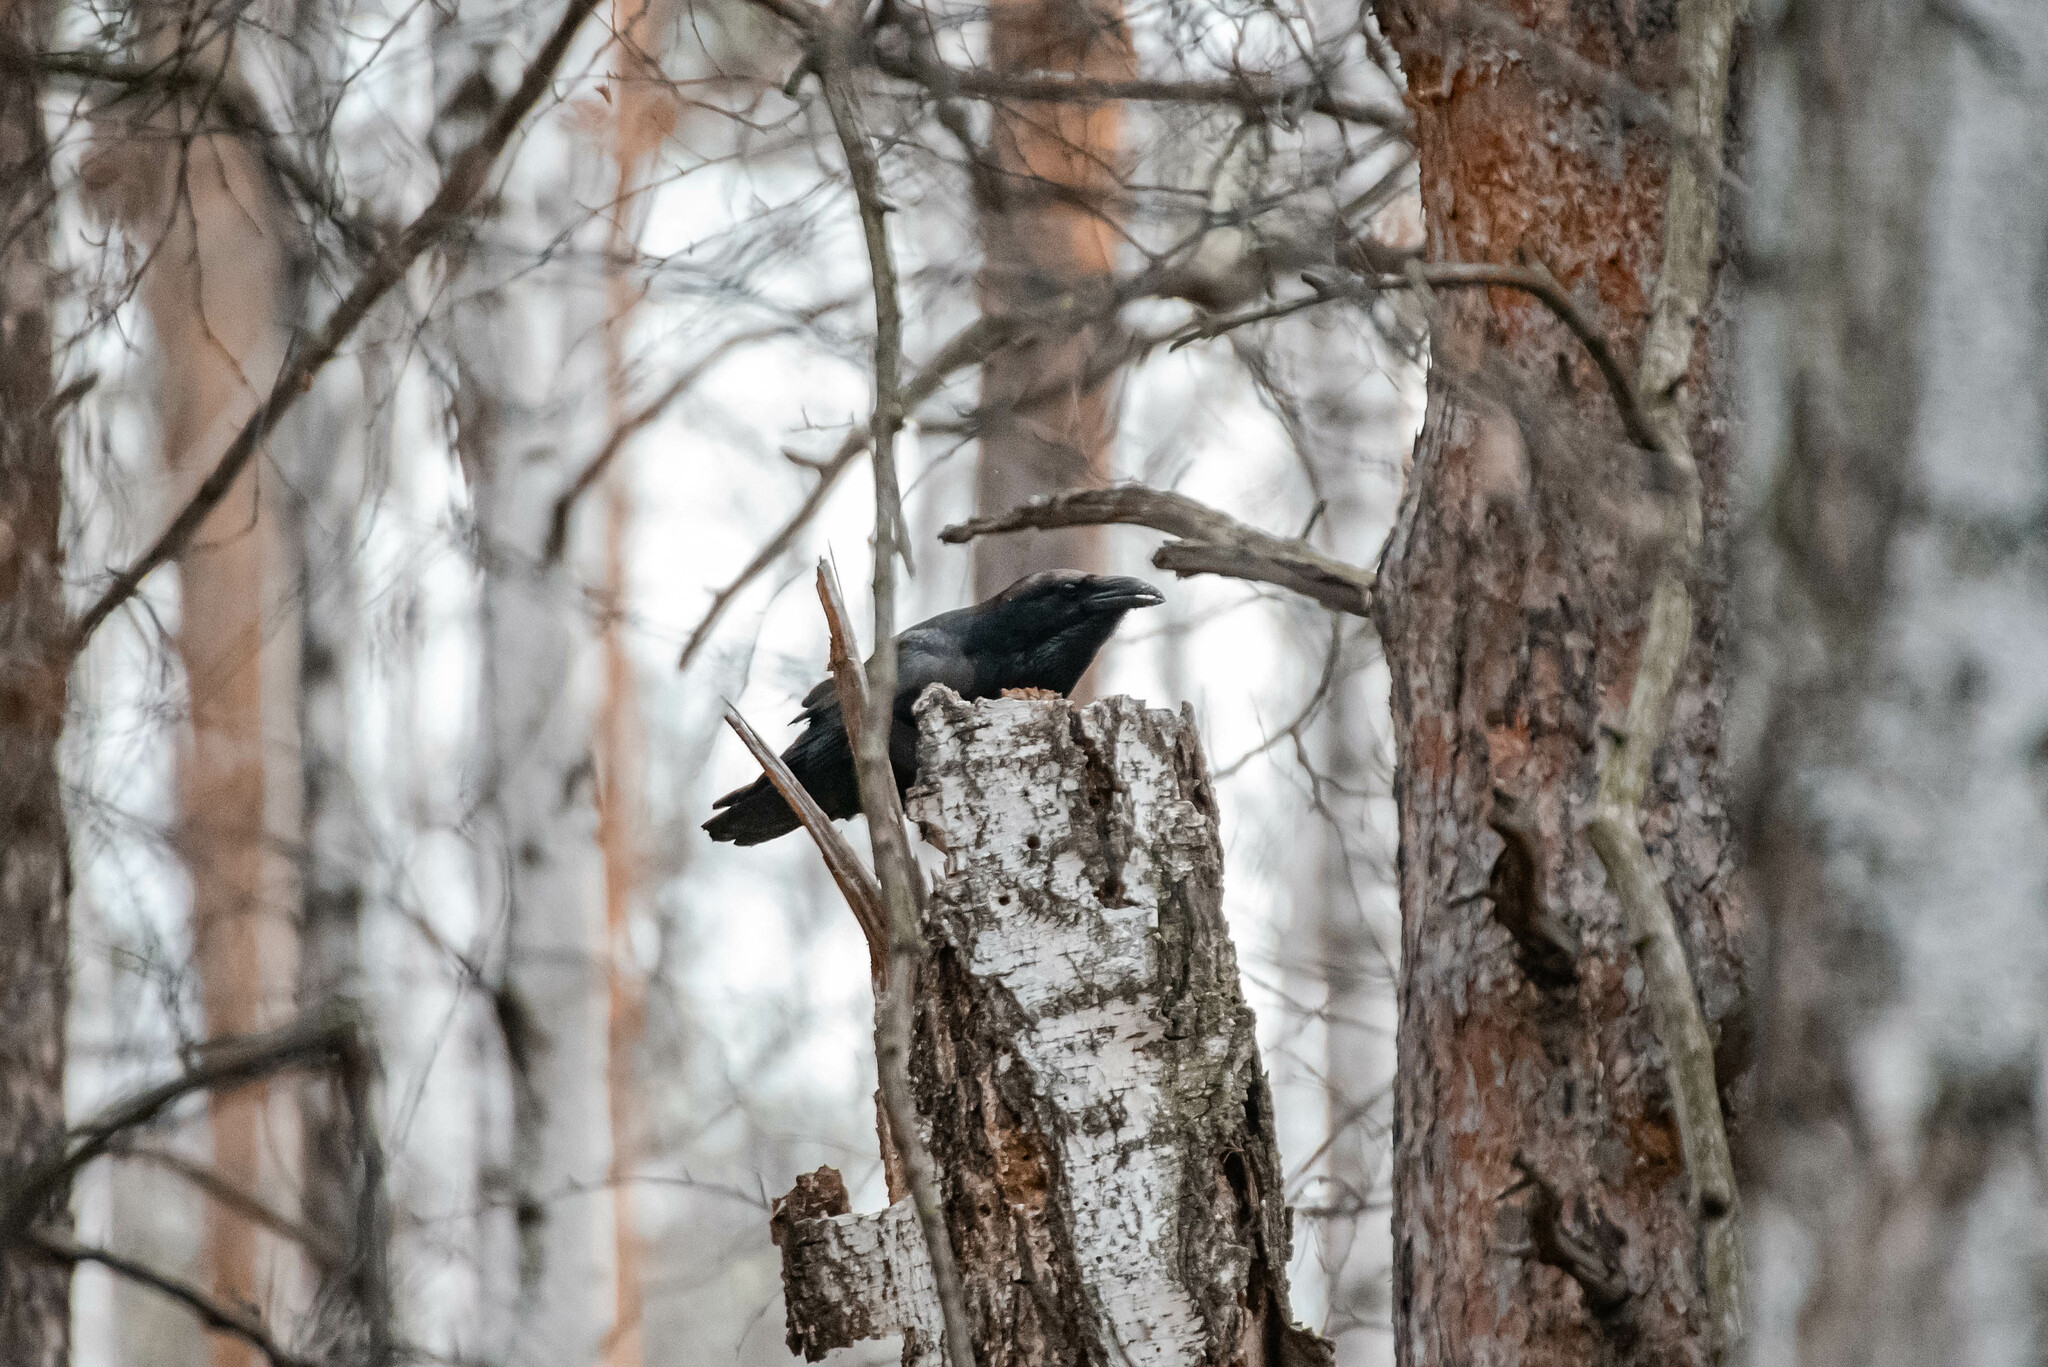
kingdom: Animalia
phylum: Chordata
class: Aves
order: Passeriformes
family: Corvidae
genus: Corvus
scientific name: Corvus corax
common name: Common raven
